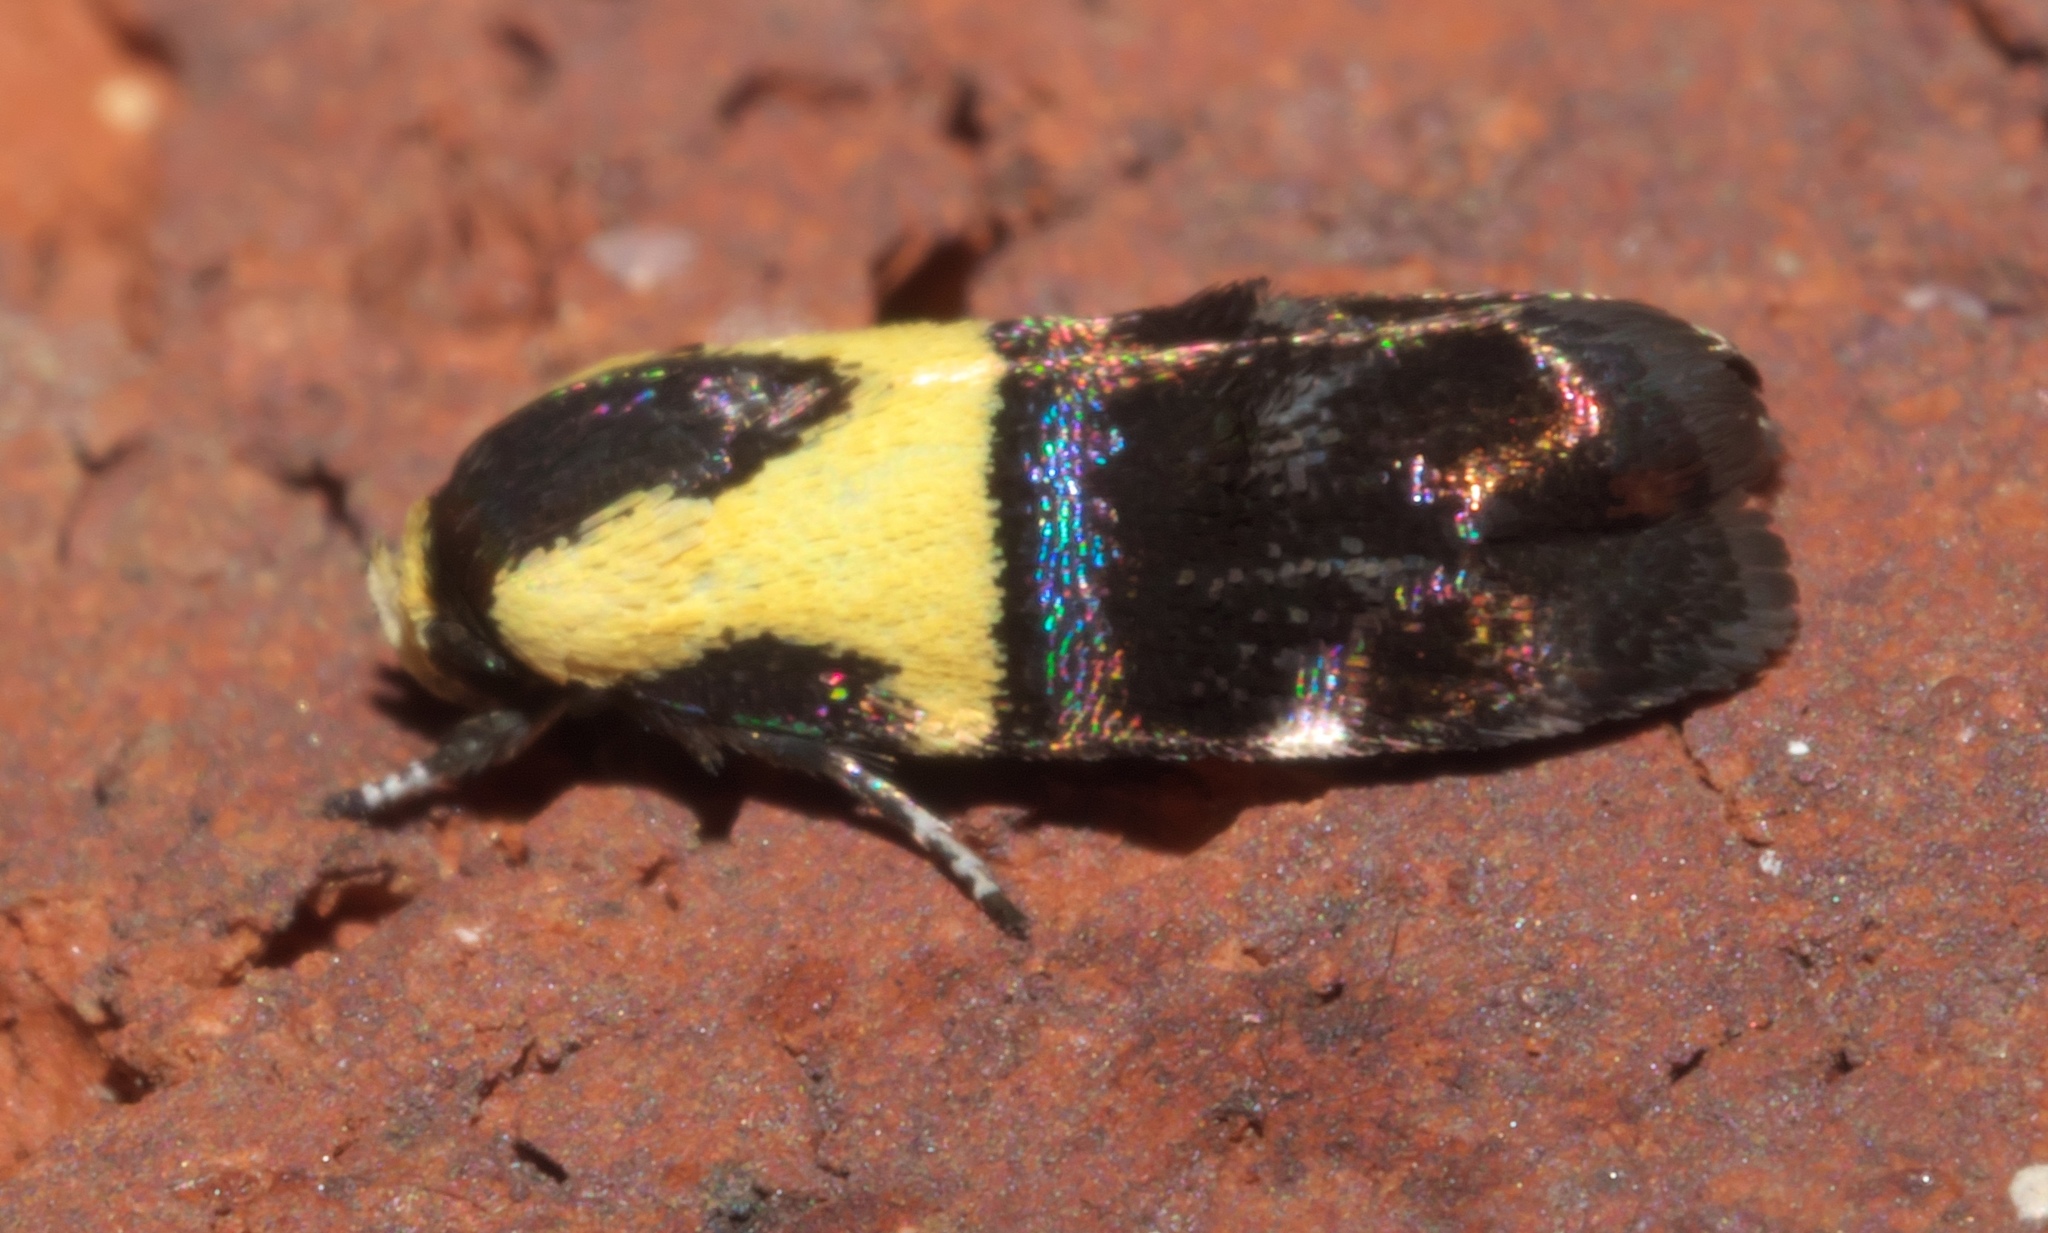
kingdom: Animalia
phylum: Arthropoda
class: Insecta
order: Lepidoptera
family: Depressariidae
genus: Rectiostoma
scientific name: Rectiostoma xanthobasis
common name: Yellow-vested moth
